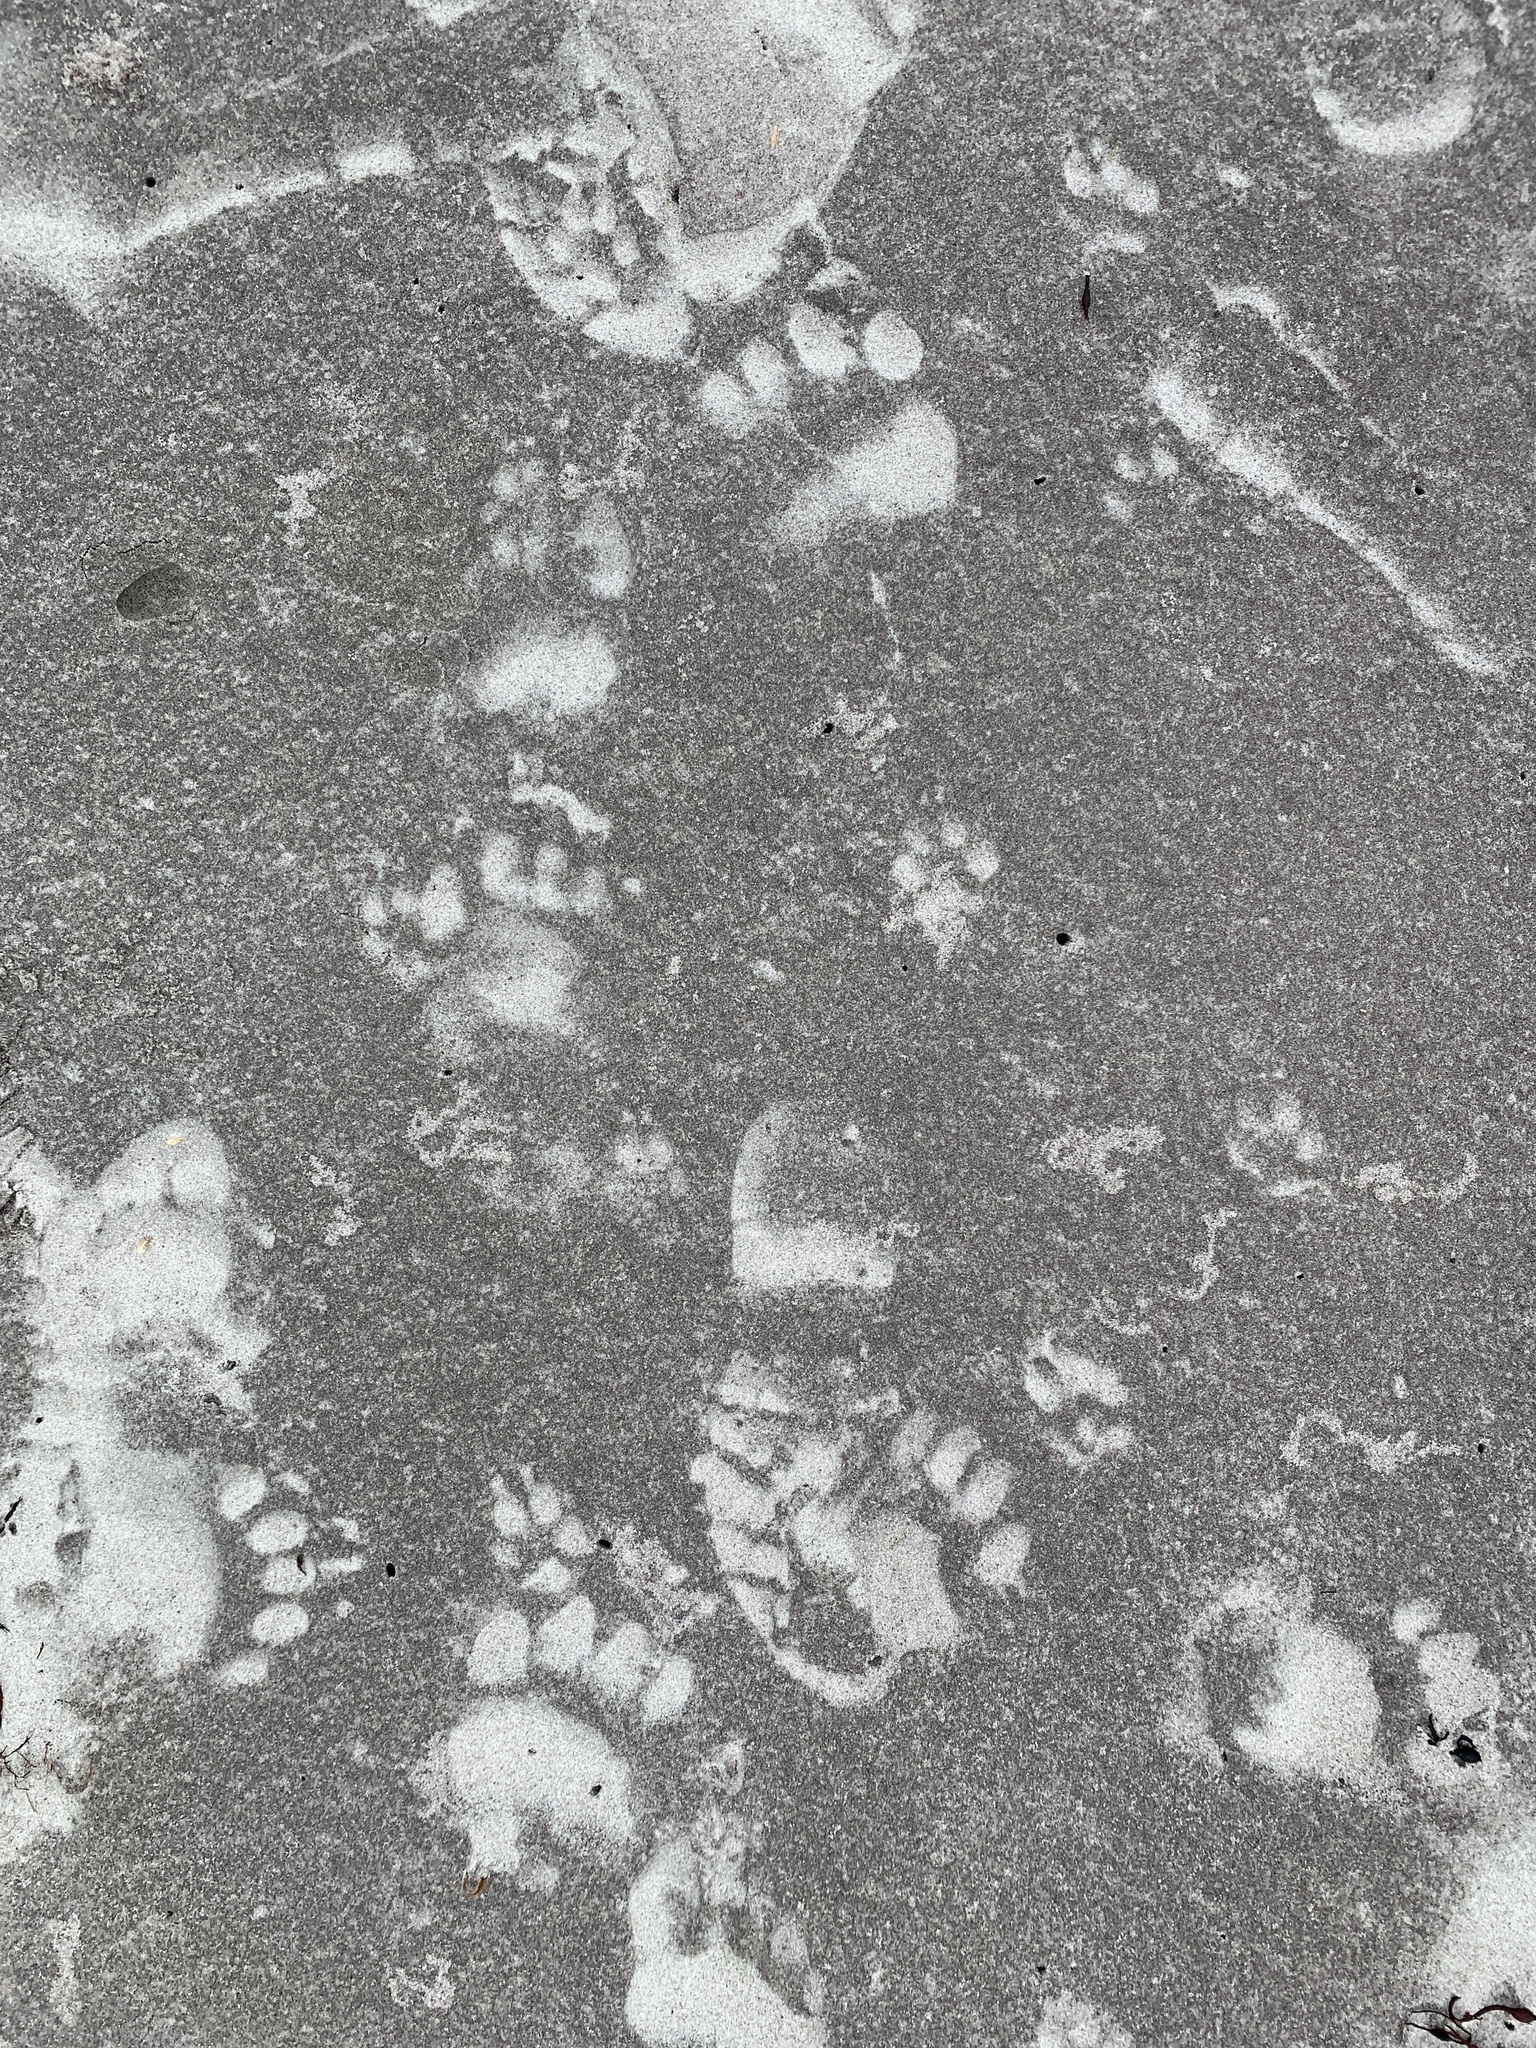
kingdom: Animalia
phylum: Chordata
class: Mammalia
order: Carnivora
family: Ursidae
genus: Ursus
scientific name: Ursus americanus
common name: American black bear
